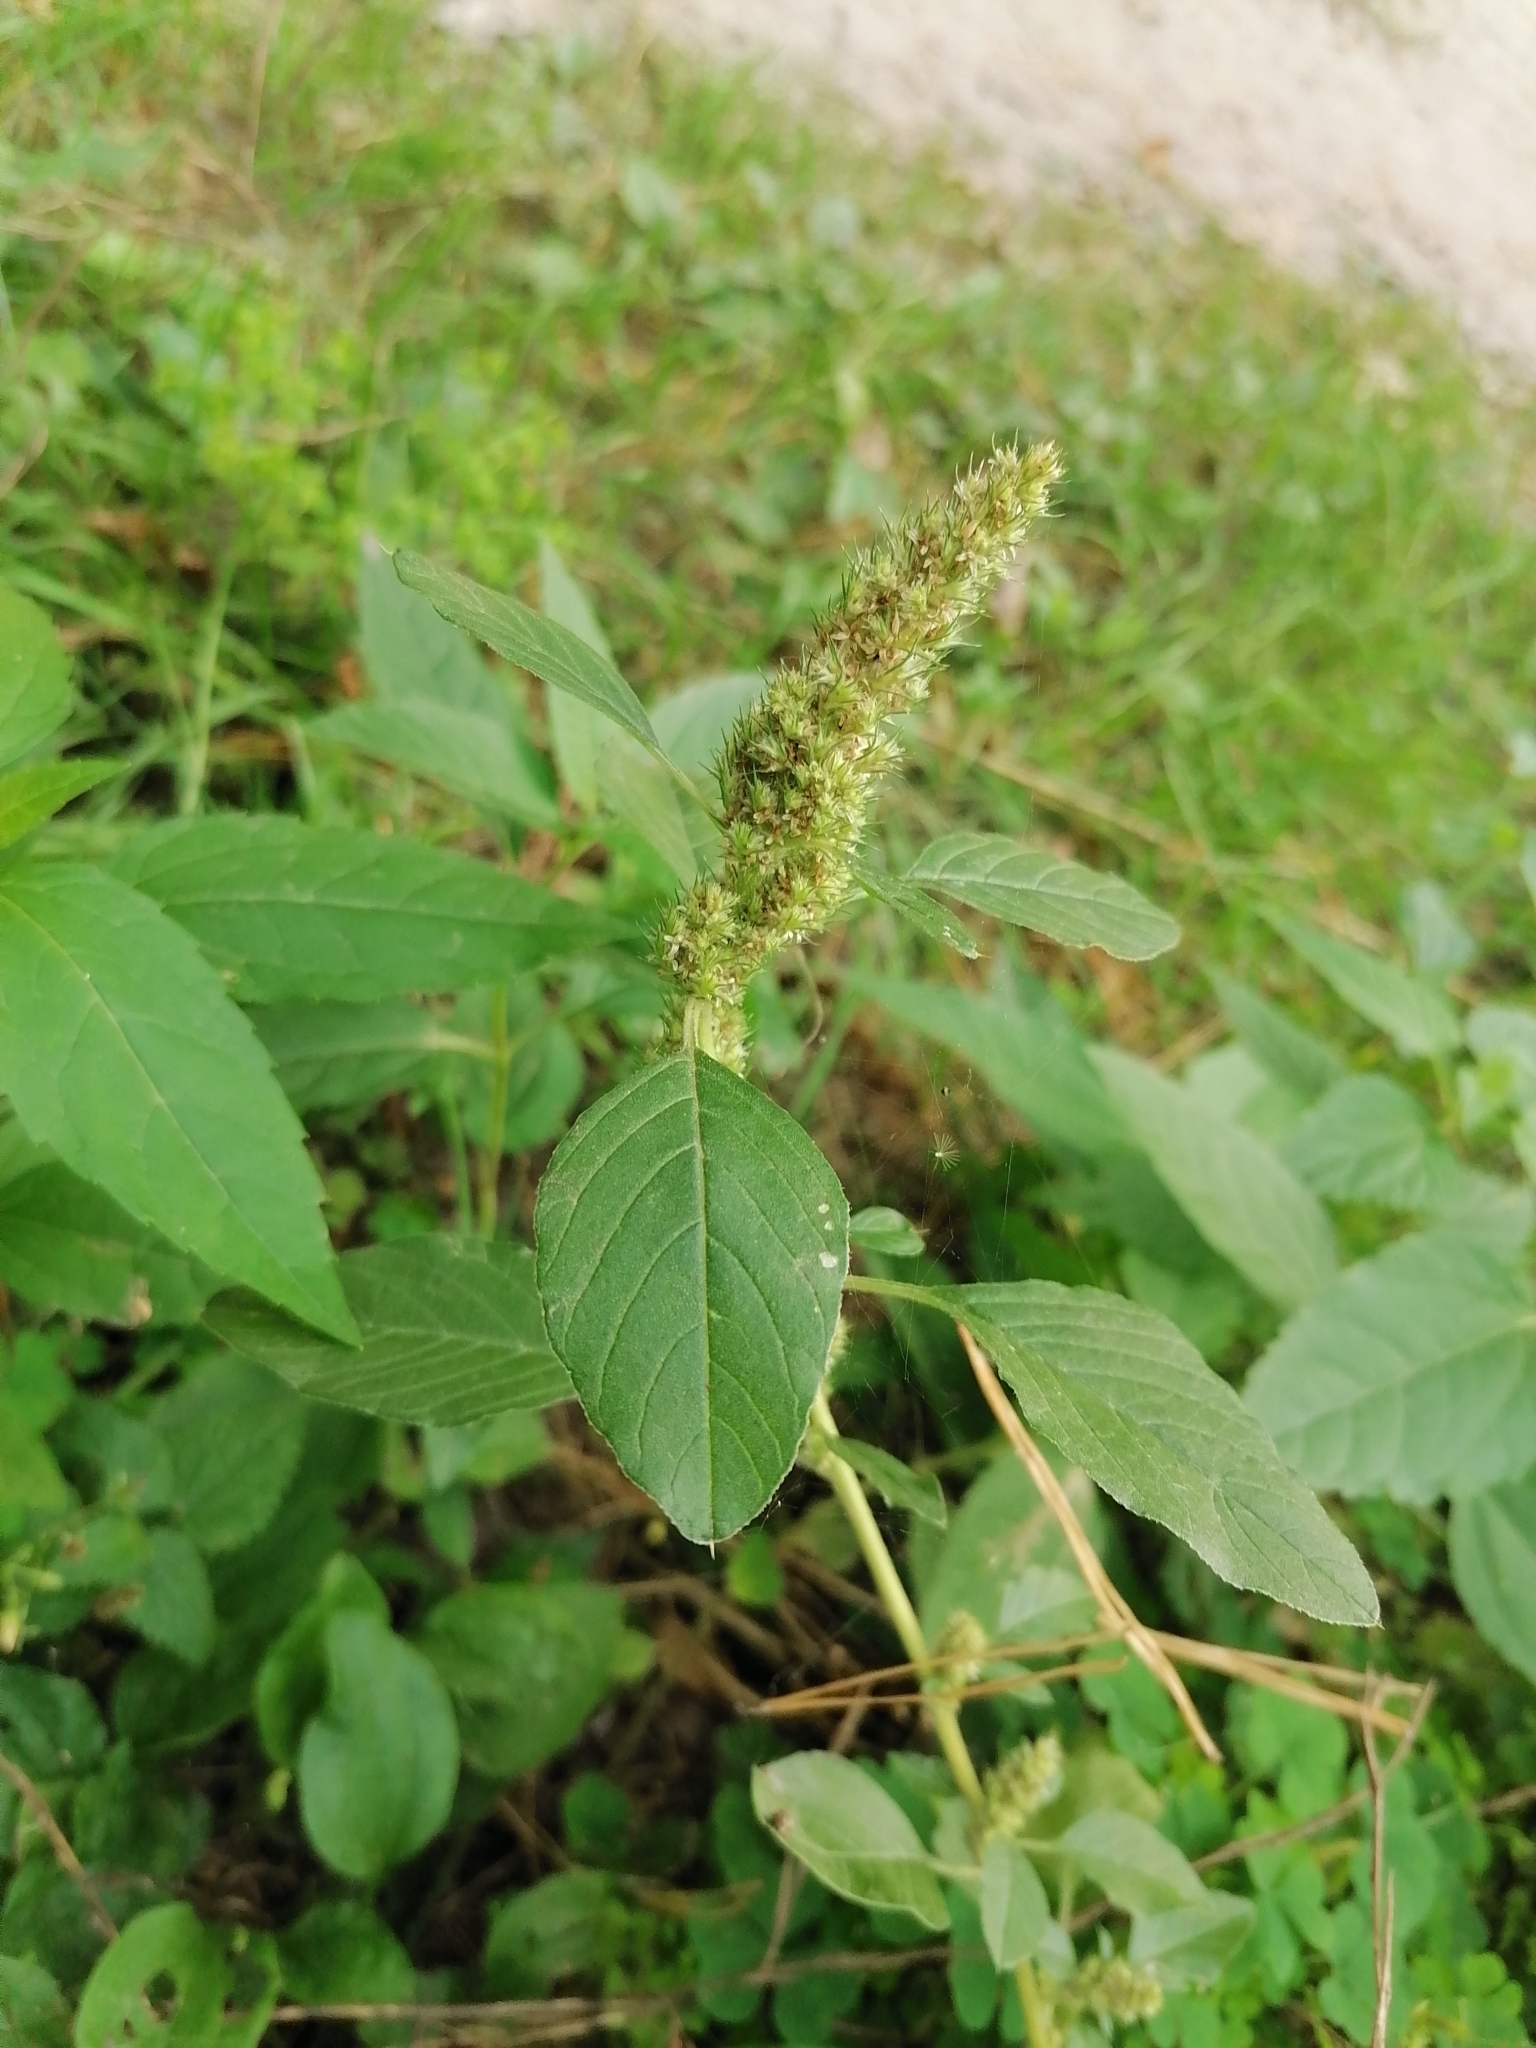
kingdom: Plantae
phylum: Tracheophyta
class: Magnoliopsida
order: Caryophyllales
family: Amaranthaceae
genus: Amaranthus
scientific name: Amaranthus retroflexus
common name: Redroot amaranth
